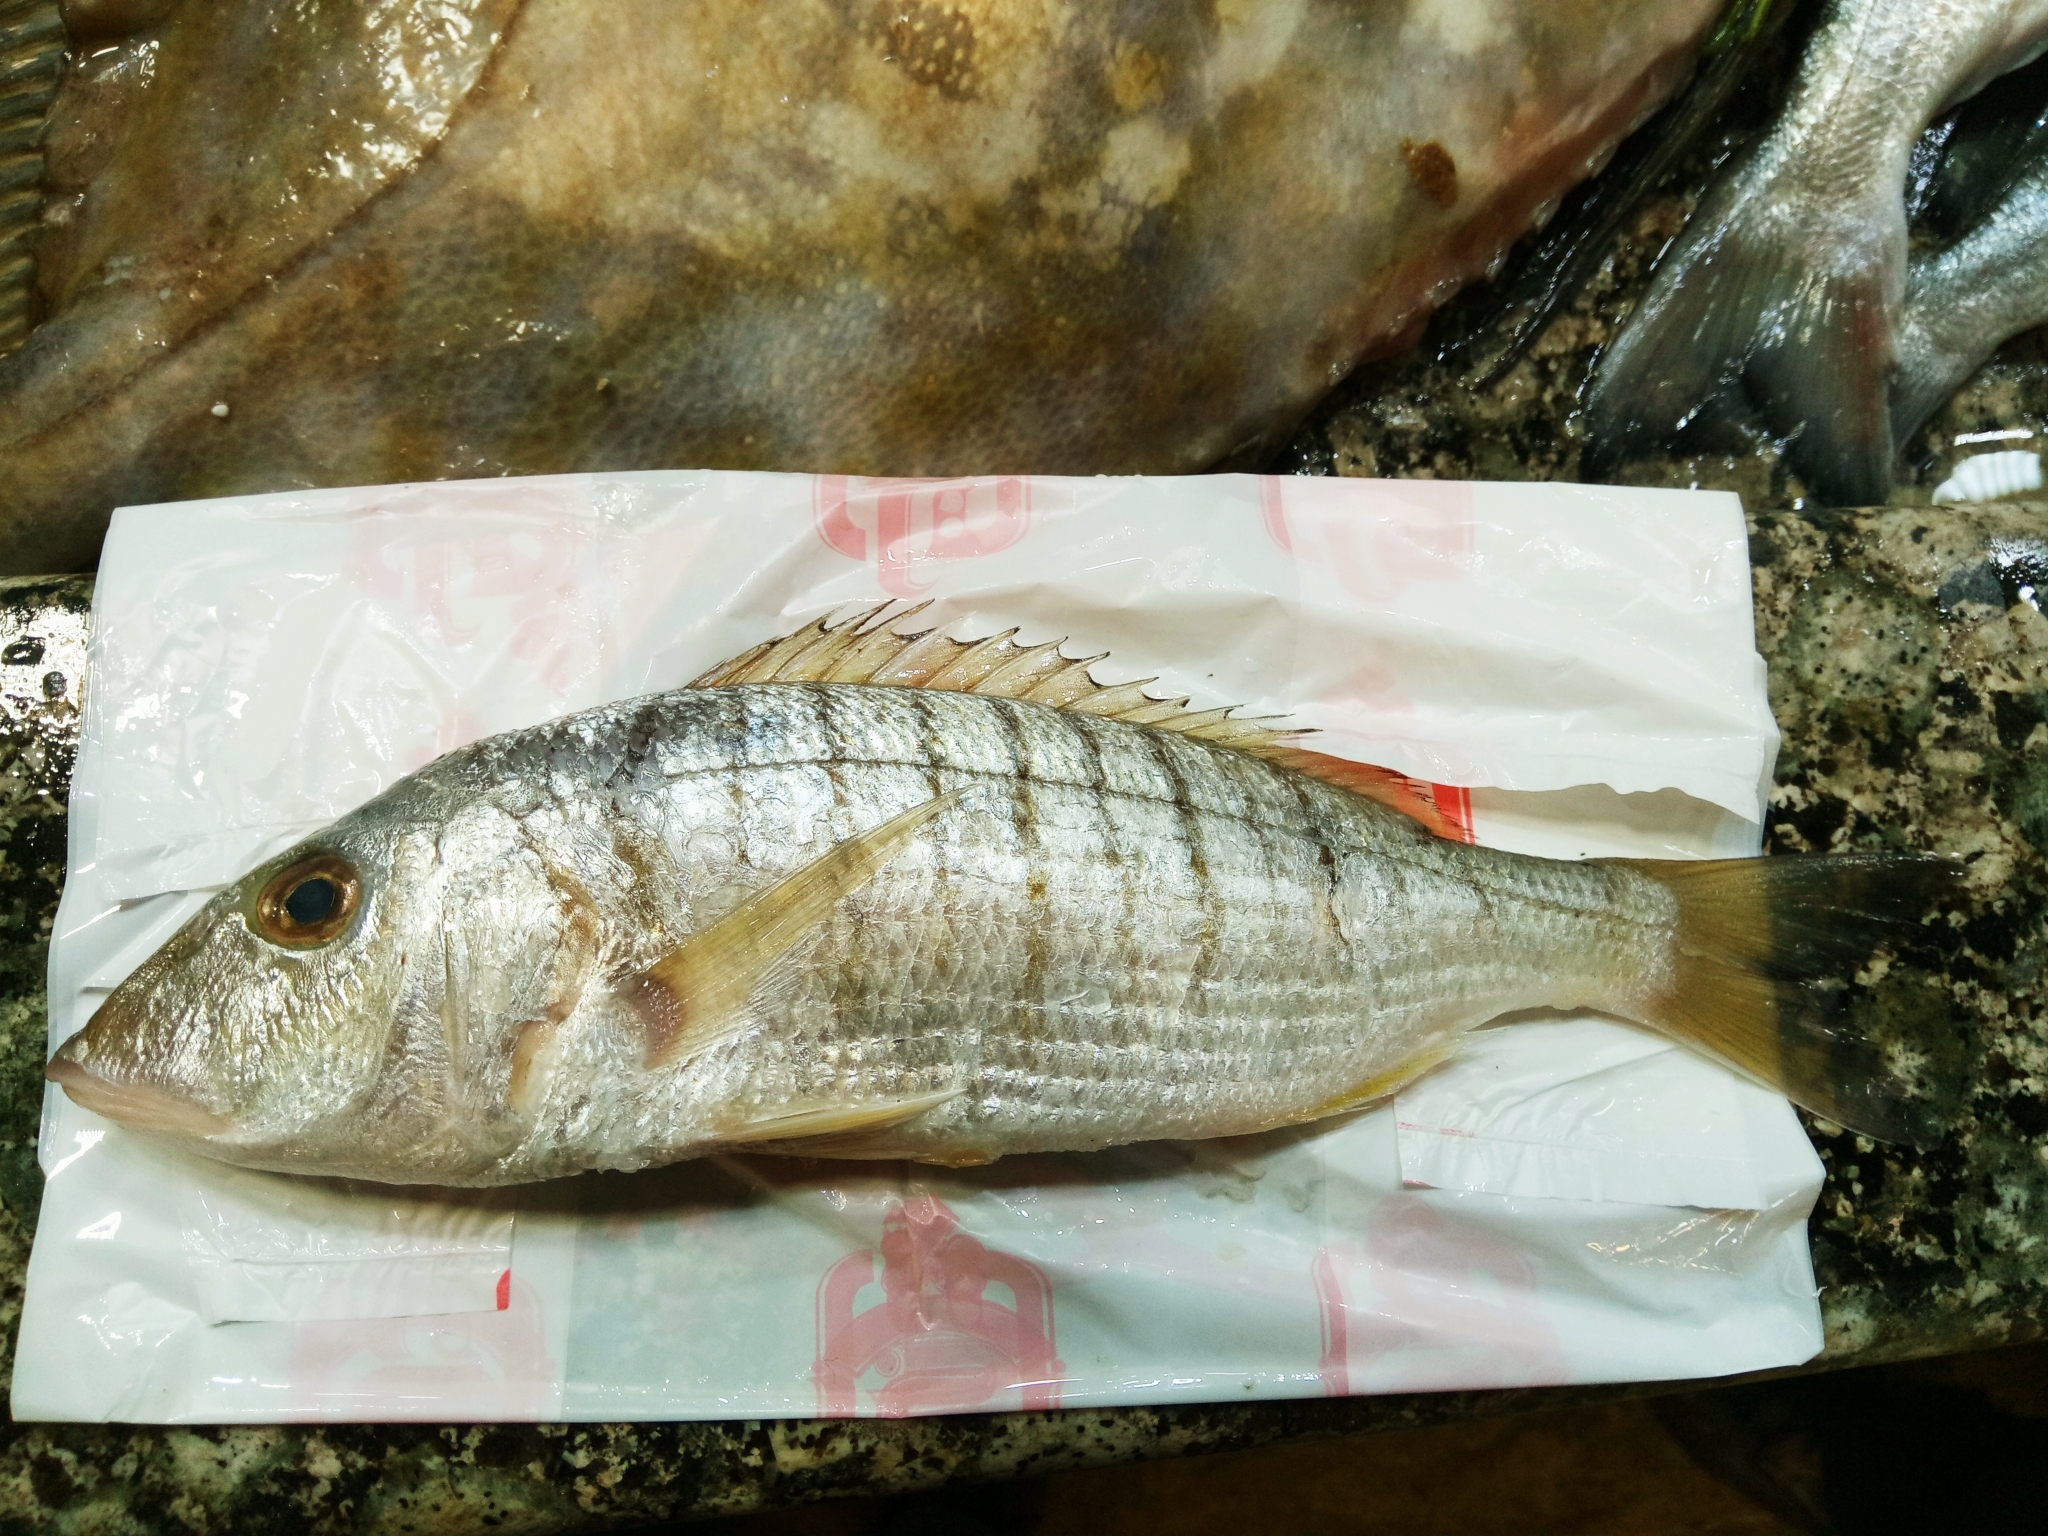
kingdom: Animalia
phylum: Chordata
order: Perciformes
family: Sparidae
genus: Lithognathus
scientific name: Lithognathus mormyrus
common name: Sand steenbras
